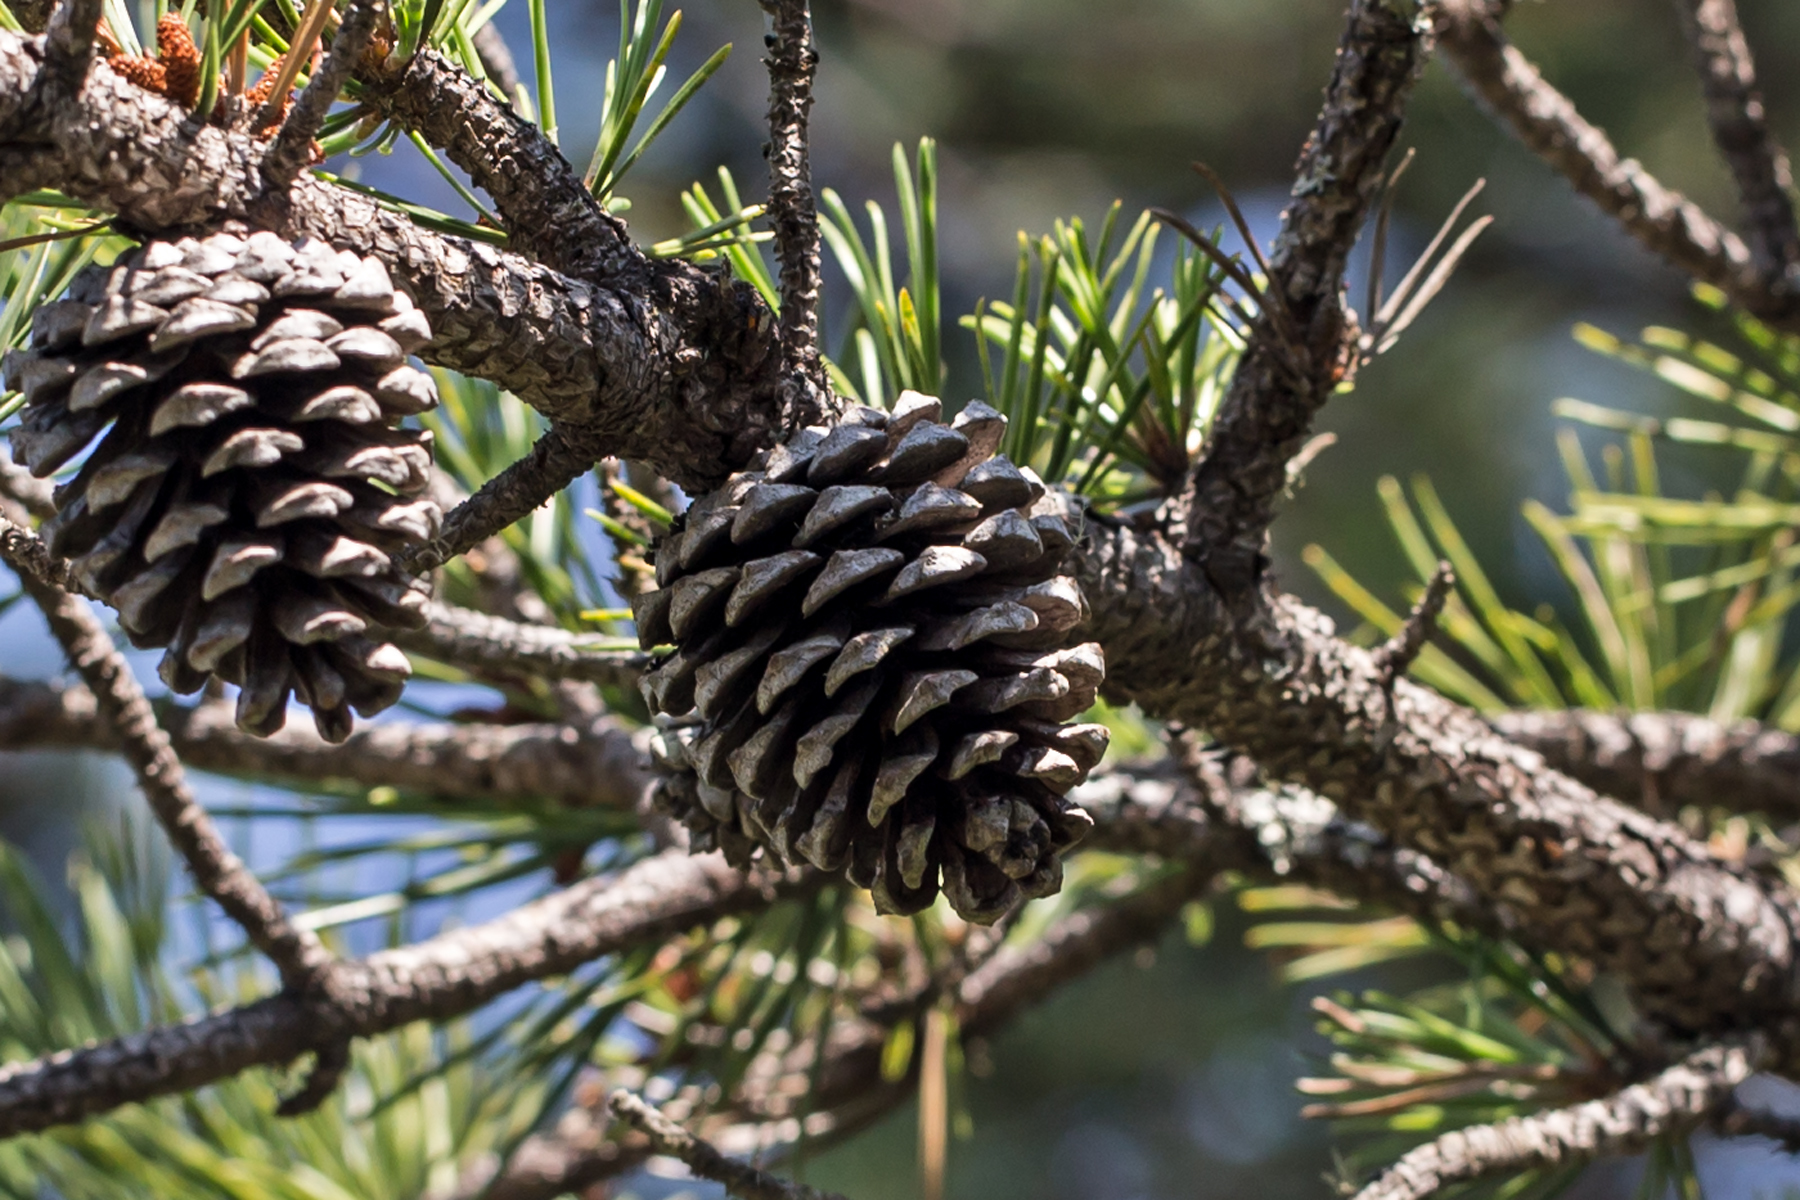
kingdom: Plantae
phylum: Tracheophyta
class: Pinopsida
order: Pinales
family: Pinaceae
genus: Pinus
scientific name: Pinus rigida
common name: Pitch pine
